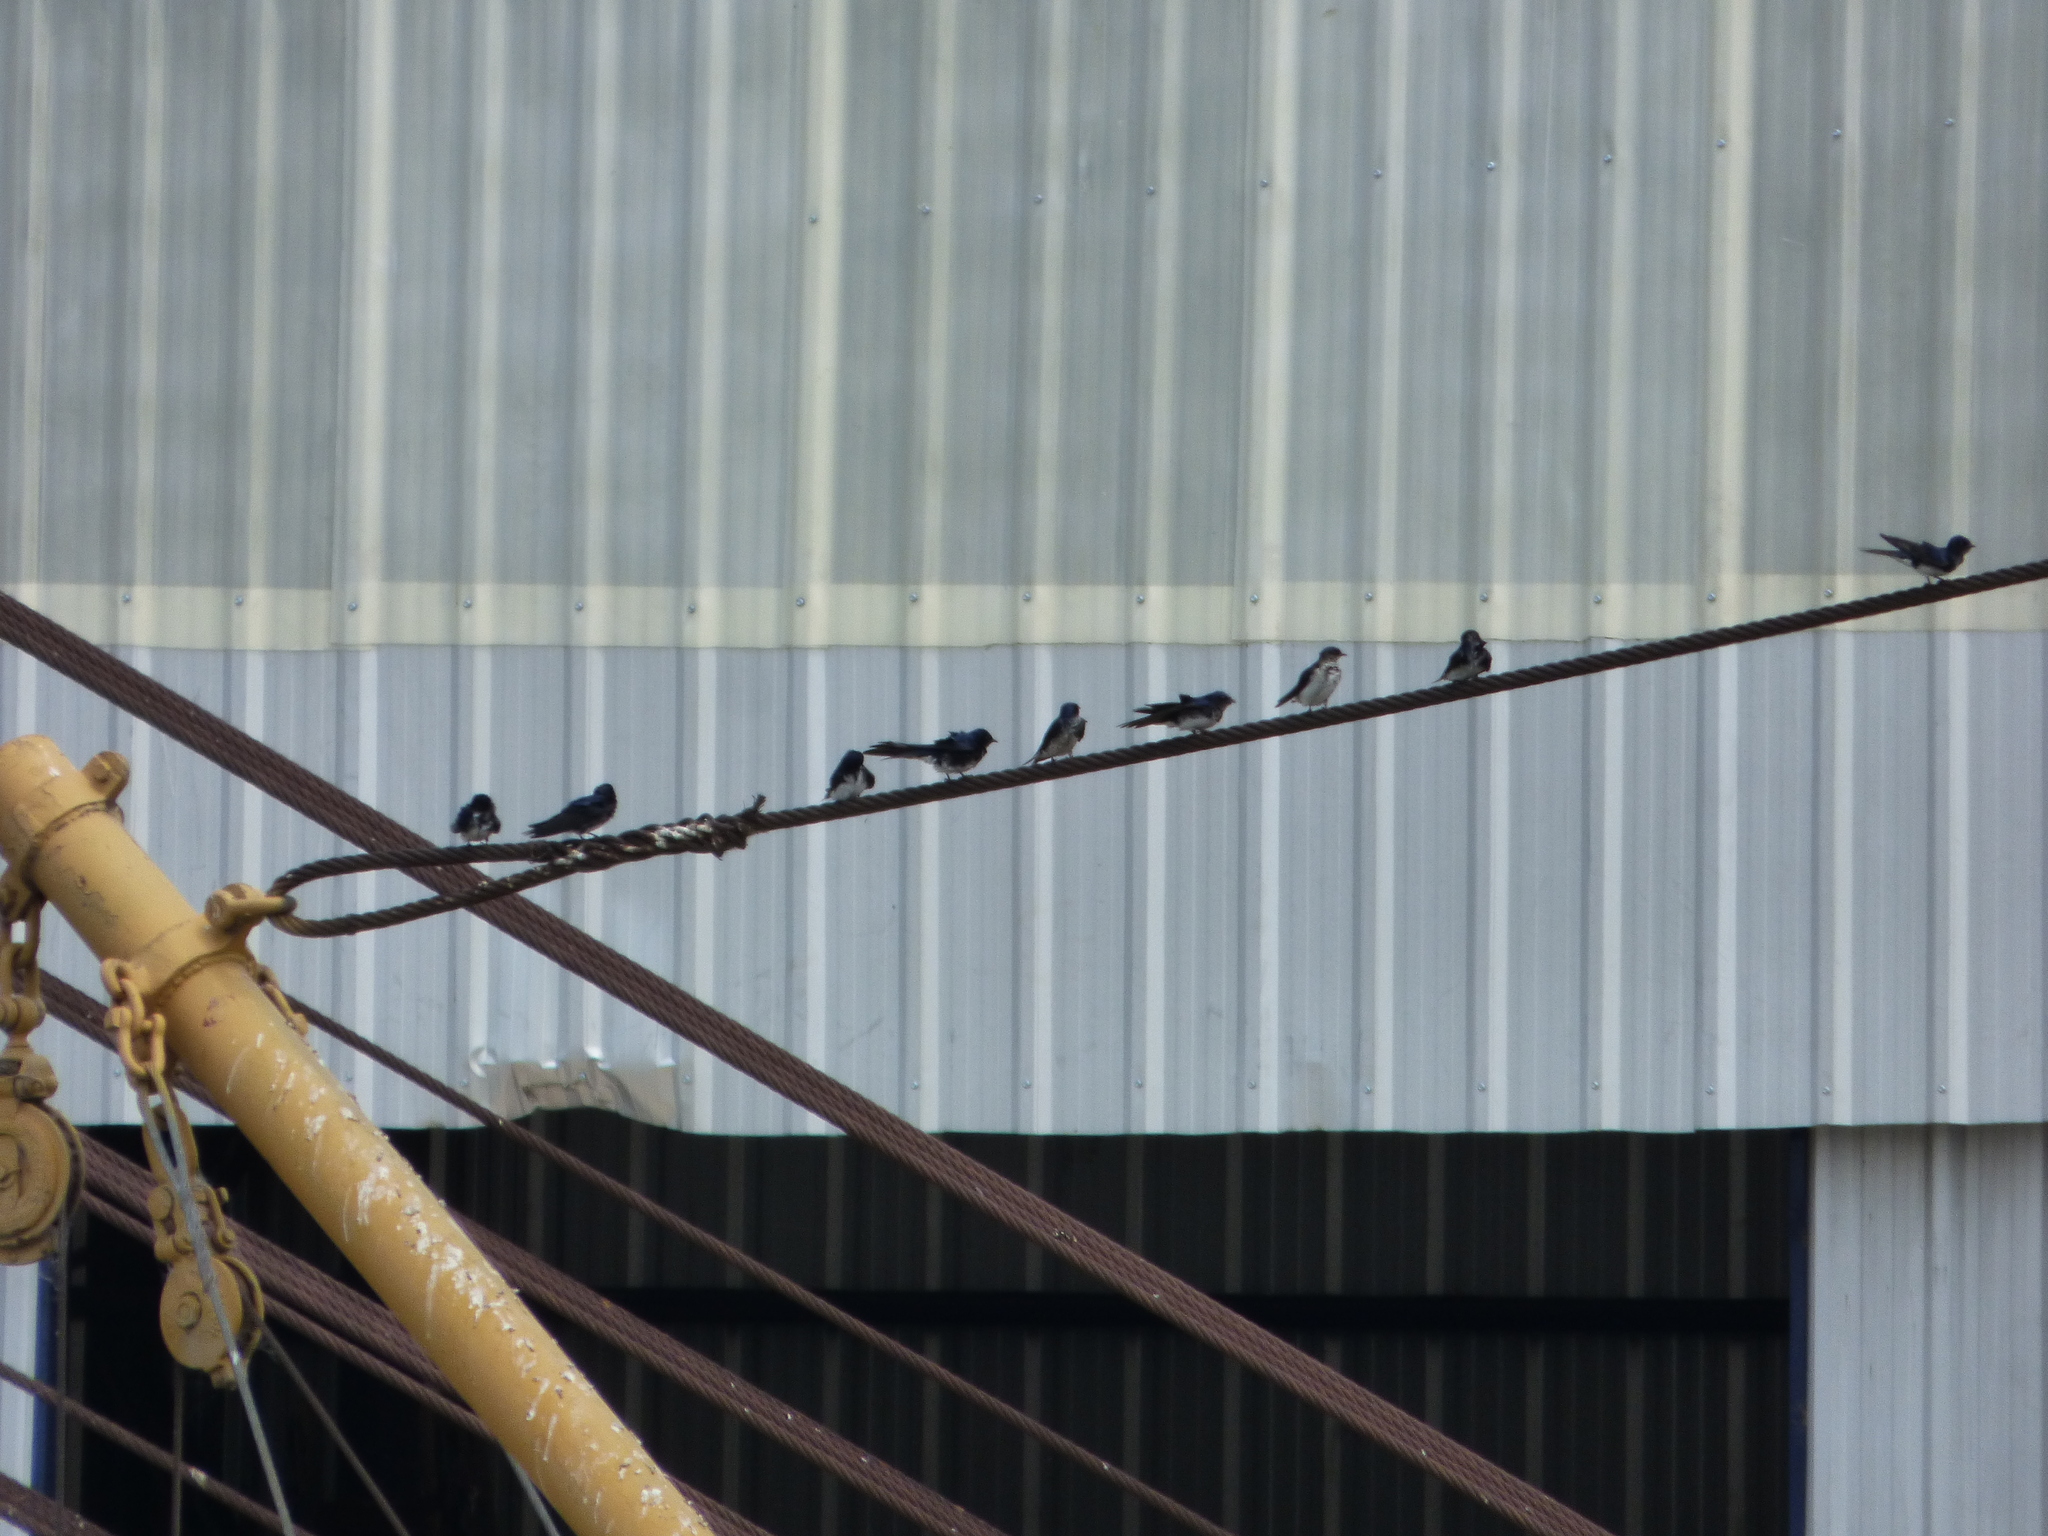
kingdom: Animalia
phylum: Chordata
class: Aves
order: Passeriformes
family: Hirundinidae
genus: Progne
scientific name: Progne chalybea
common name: Grey-breasted martin
